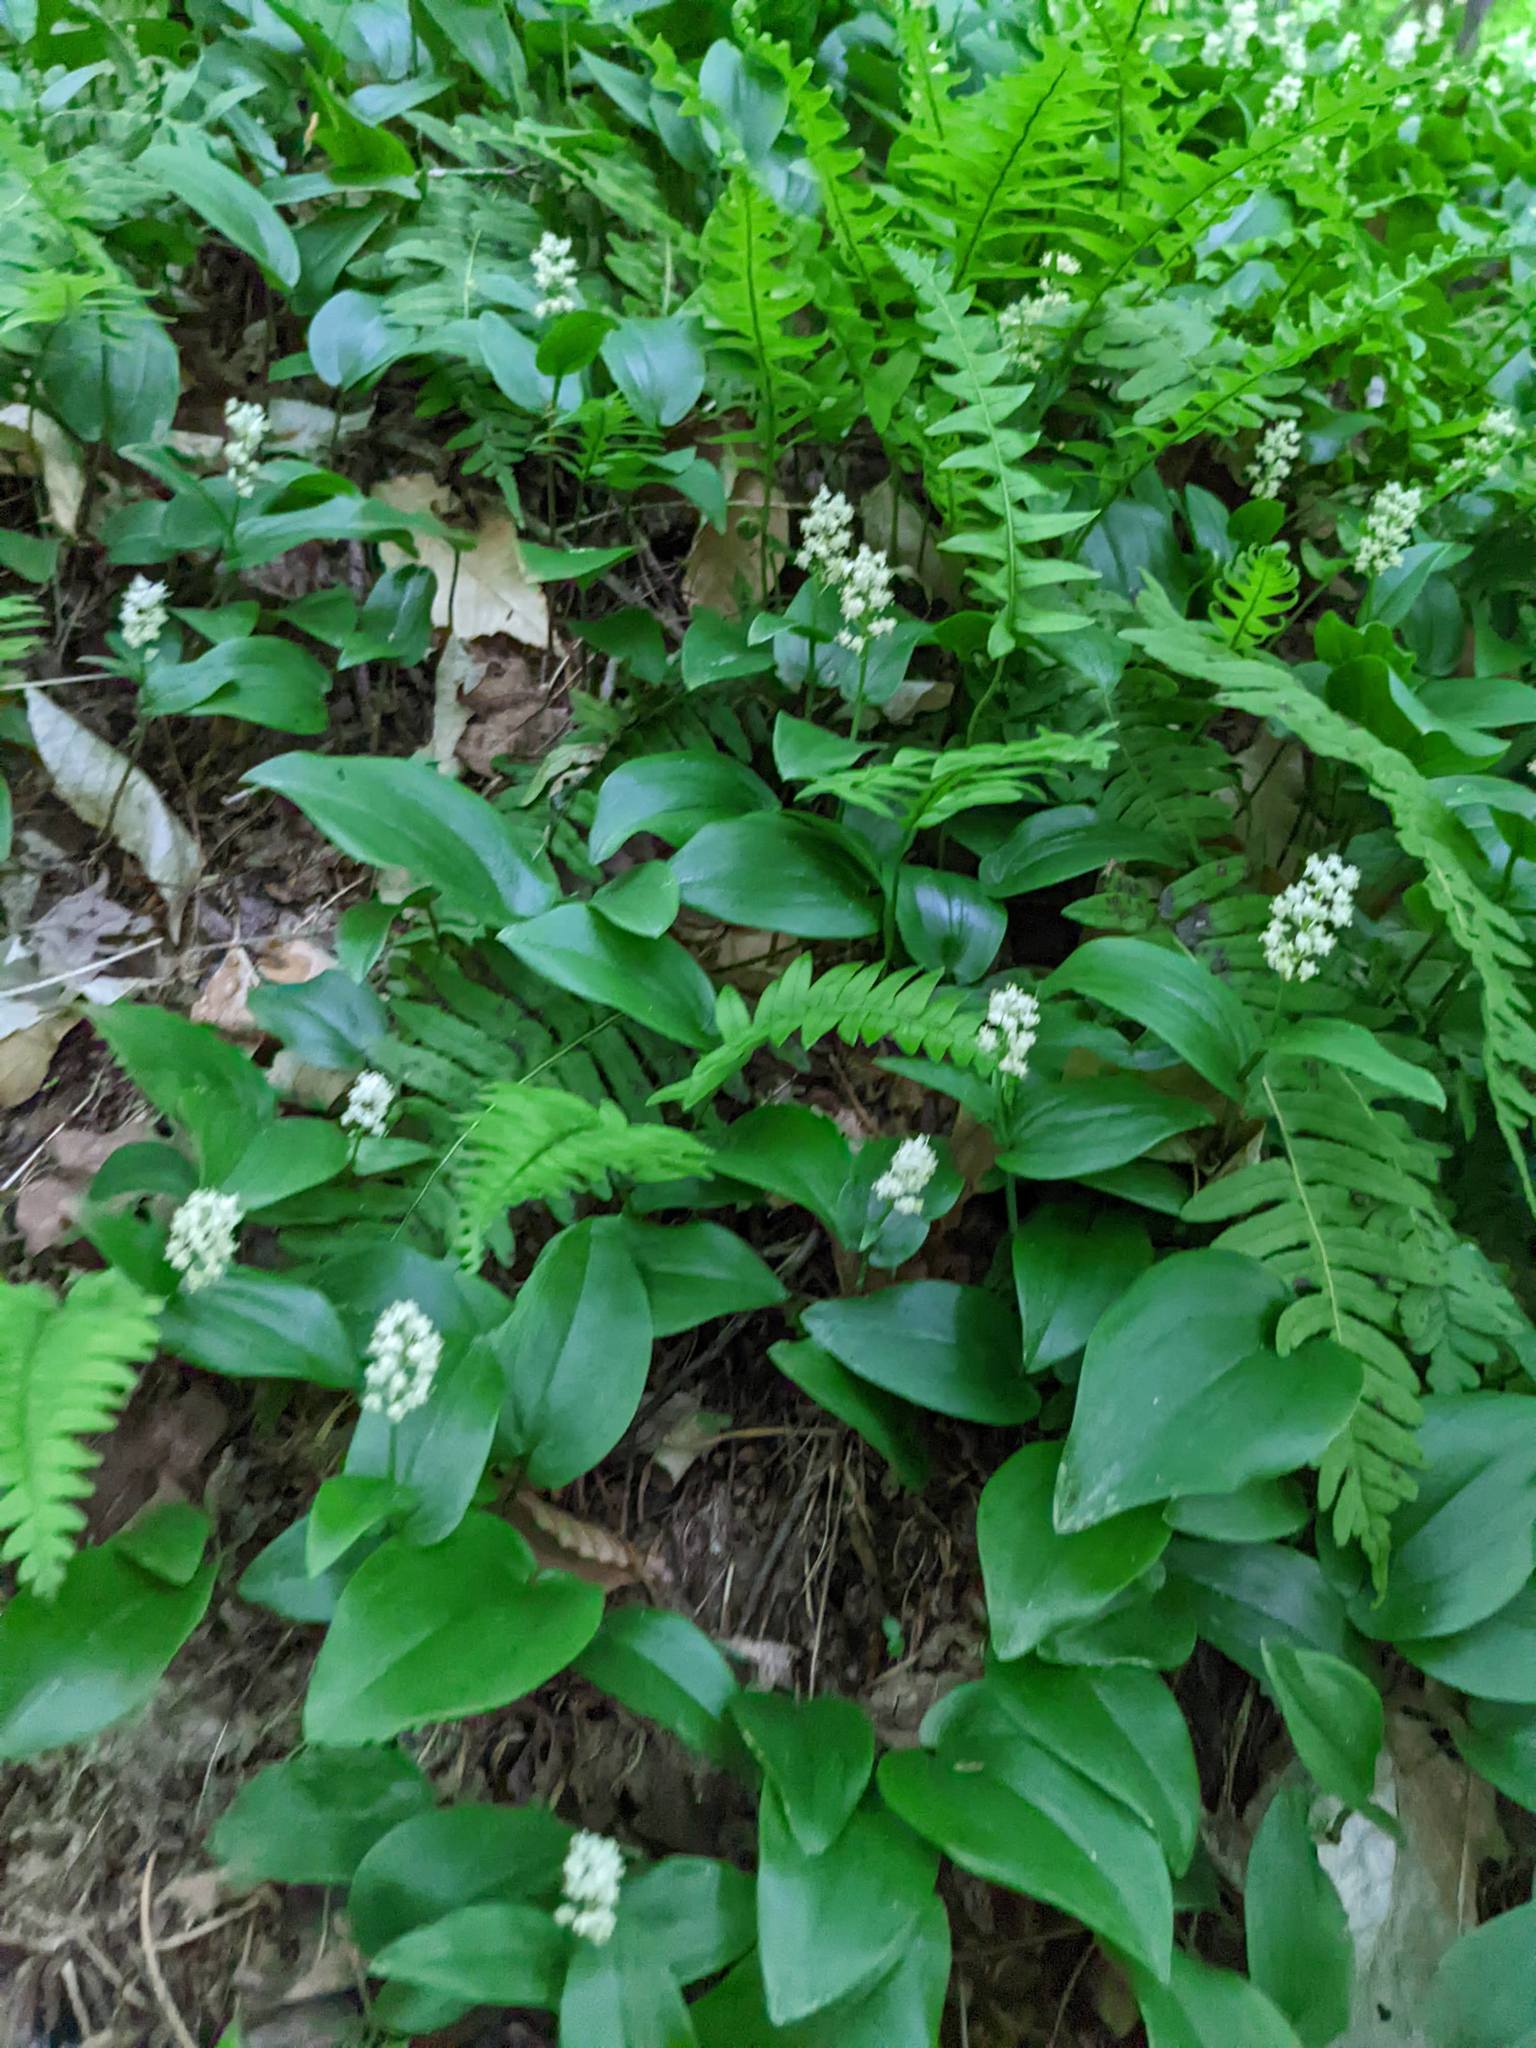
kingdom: Plantae
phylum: Tracheophyta
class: Liliopsida
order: Asparagales
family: Asparagaceae
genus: Maianthemum
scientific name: Maianthemum canadense
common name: False lily-of-the-valley
